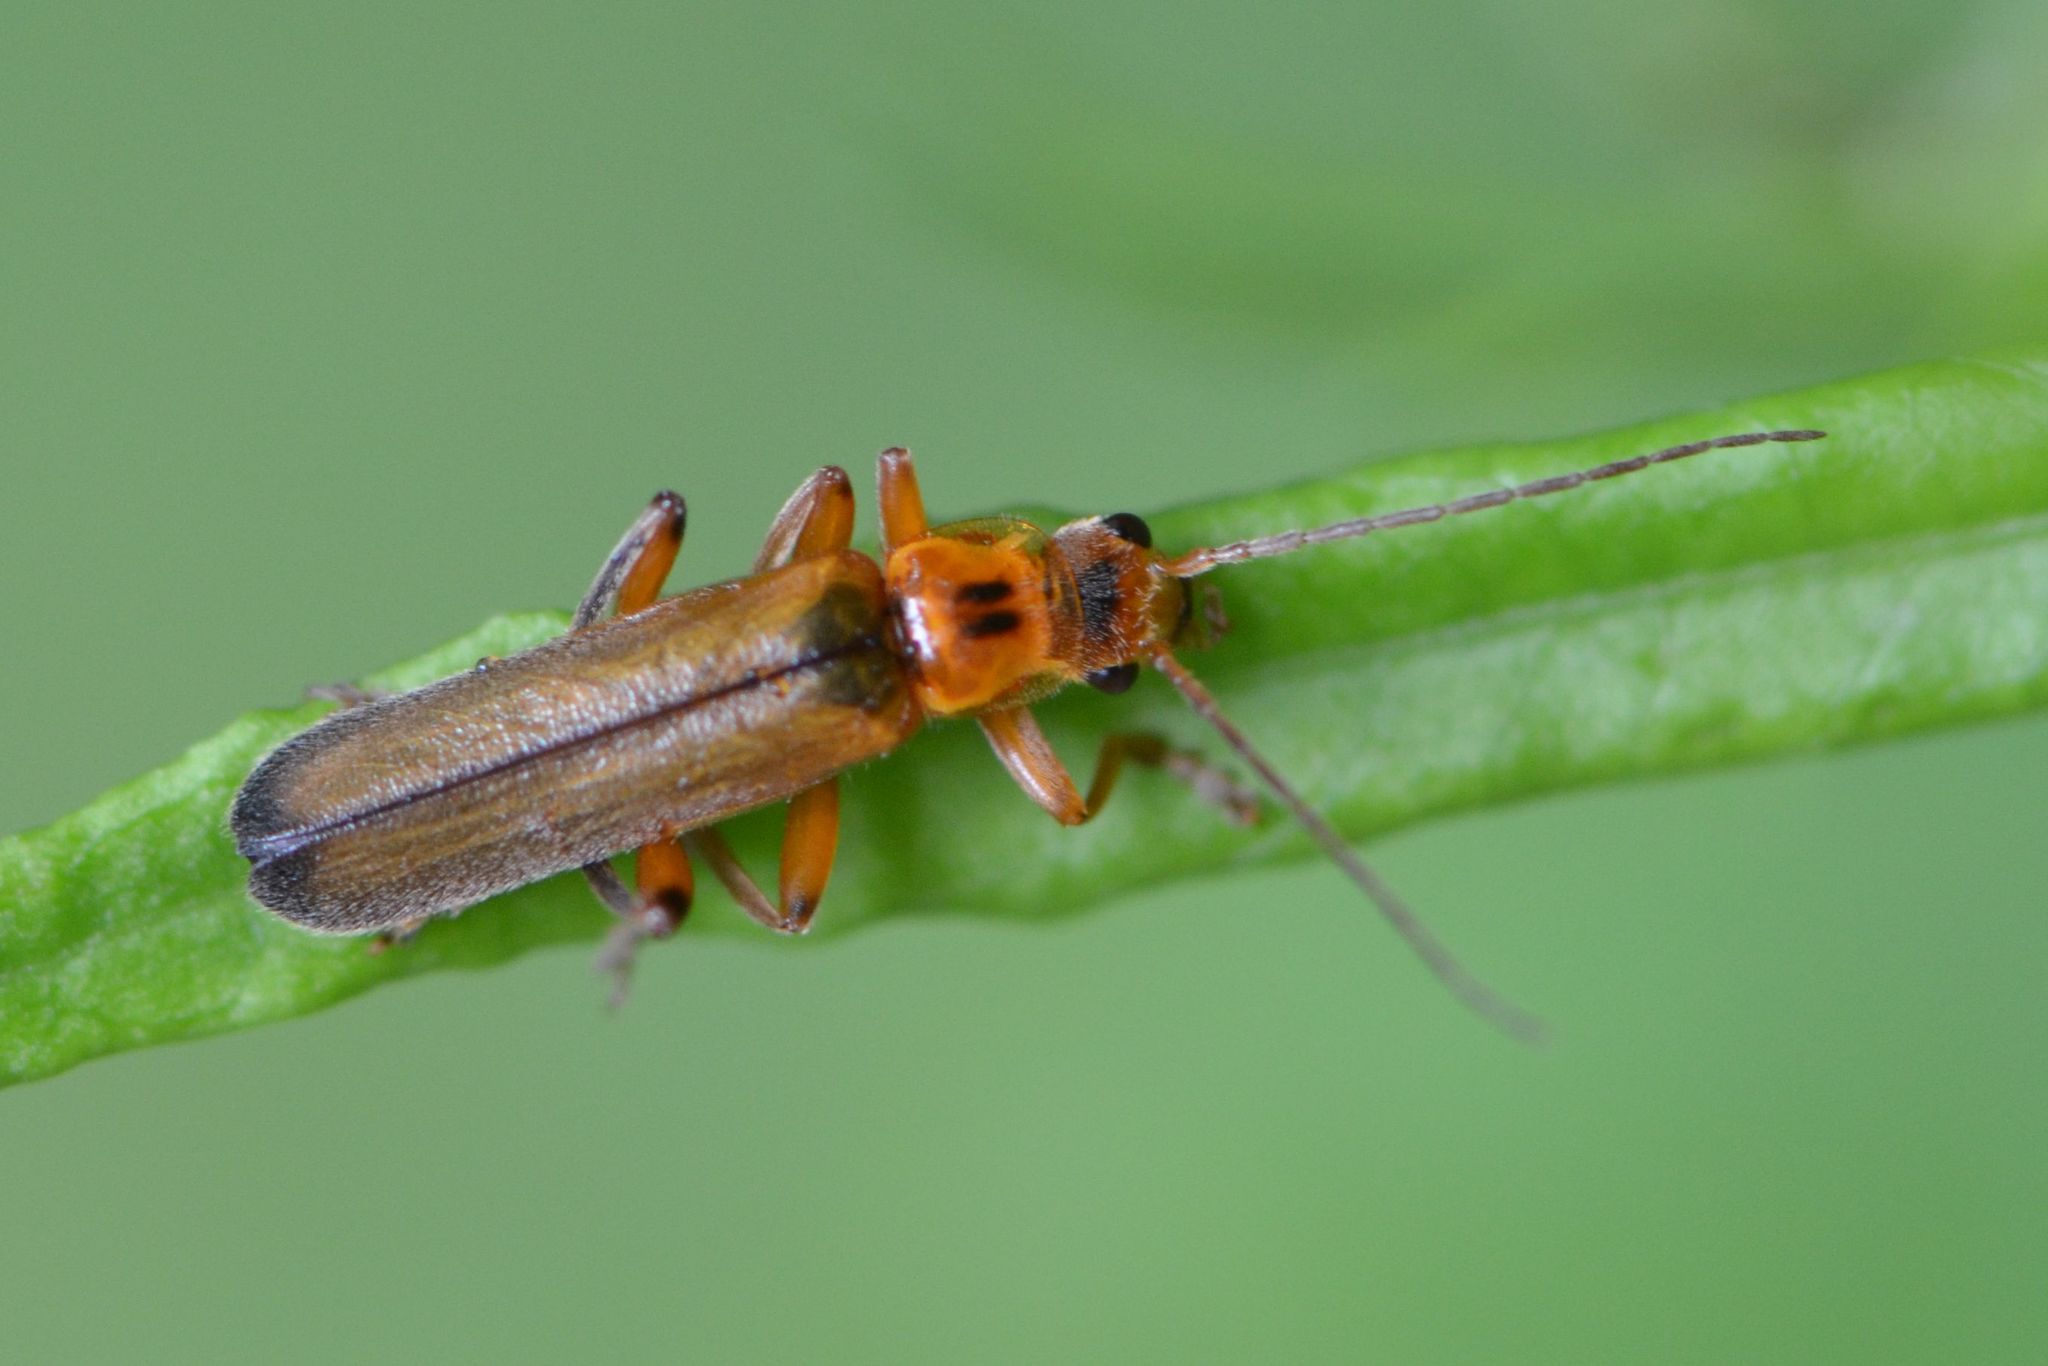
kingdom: Animalia
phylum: Arthropoda
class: Insecta
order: Coleoptera
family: Cantharidae
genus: Metacantharis
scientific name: Metacantharis discoidea
